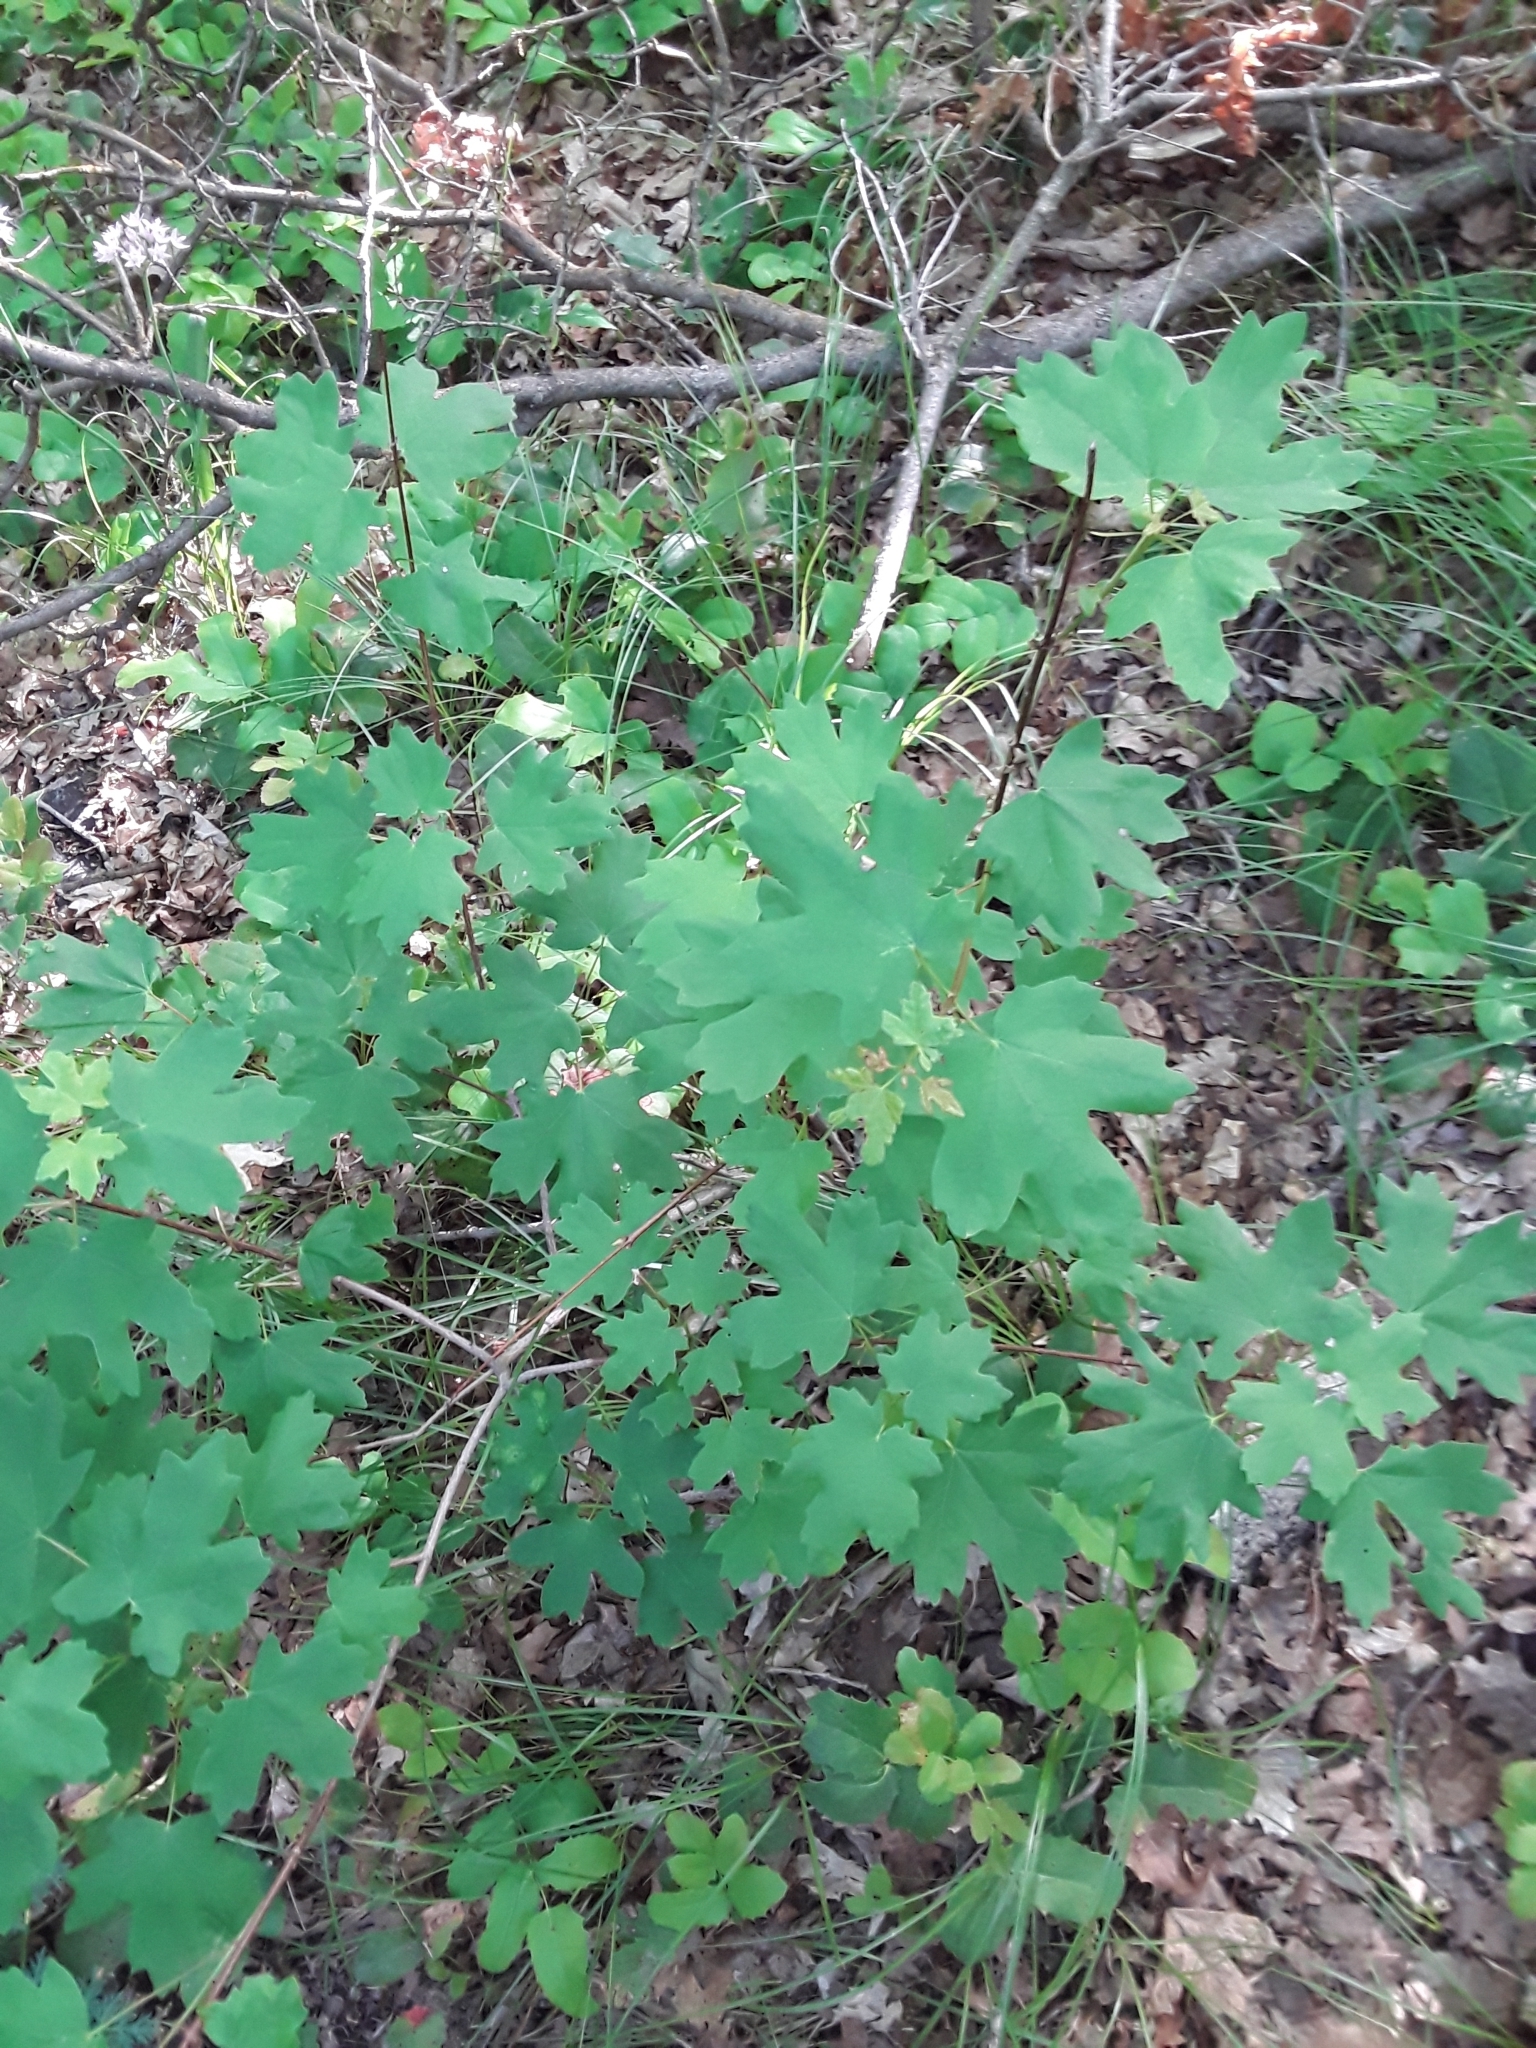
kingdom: Plantae
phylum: Tracheophyta
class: Magnoliopsida
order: Sapindales
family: Sapindaceae
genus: Acer
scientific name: Acer grandidentatum
